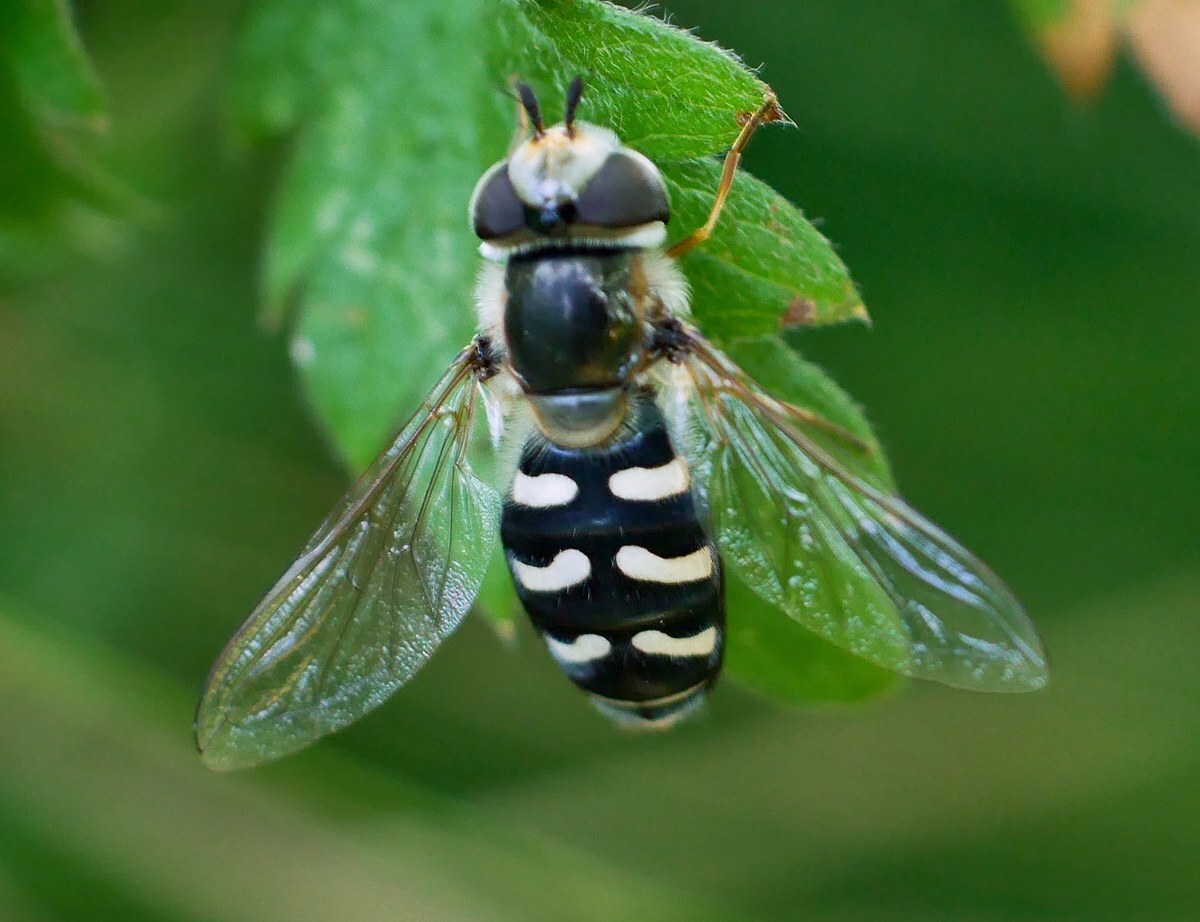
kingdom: Animalia
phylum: Arthropoda
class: Insecta
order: Diptera
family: Syrphidae
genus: Scaeva
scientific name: Scaeva pyrastri
